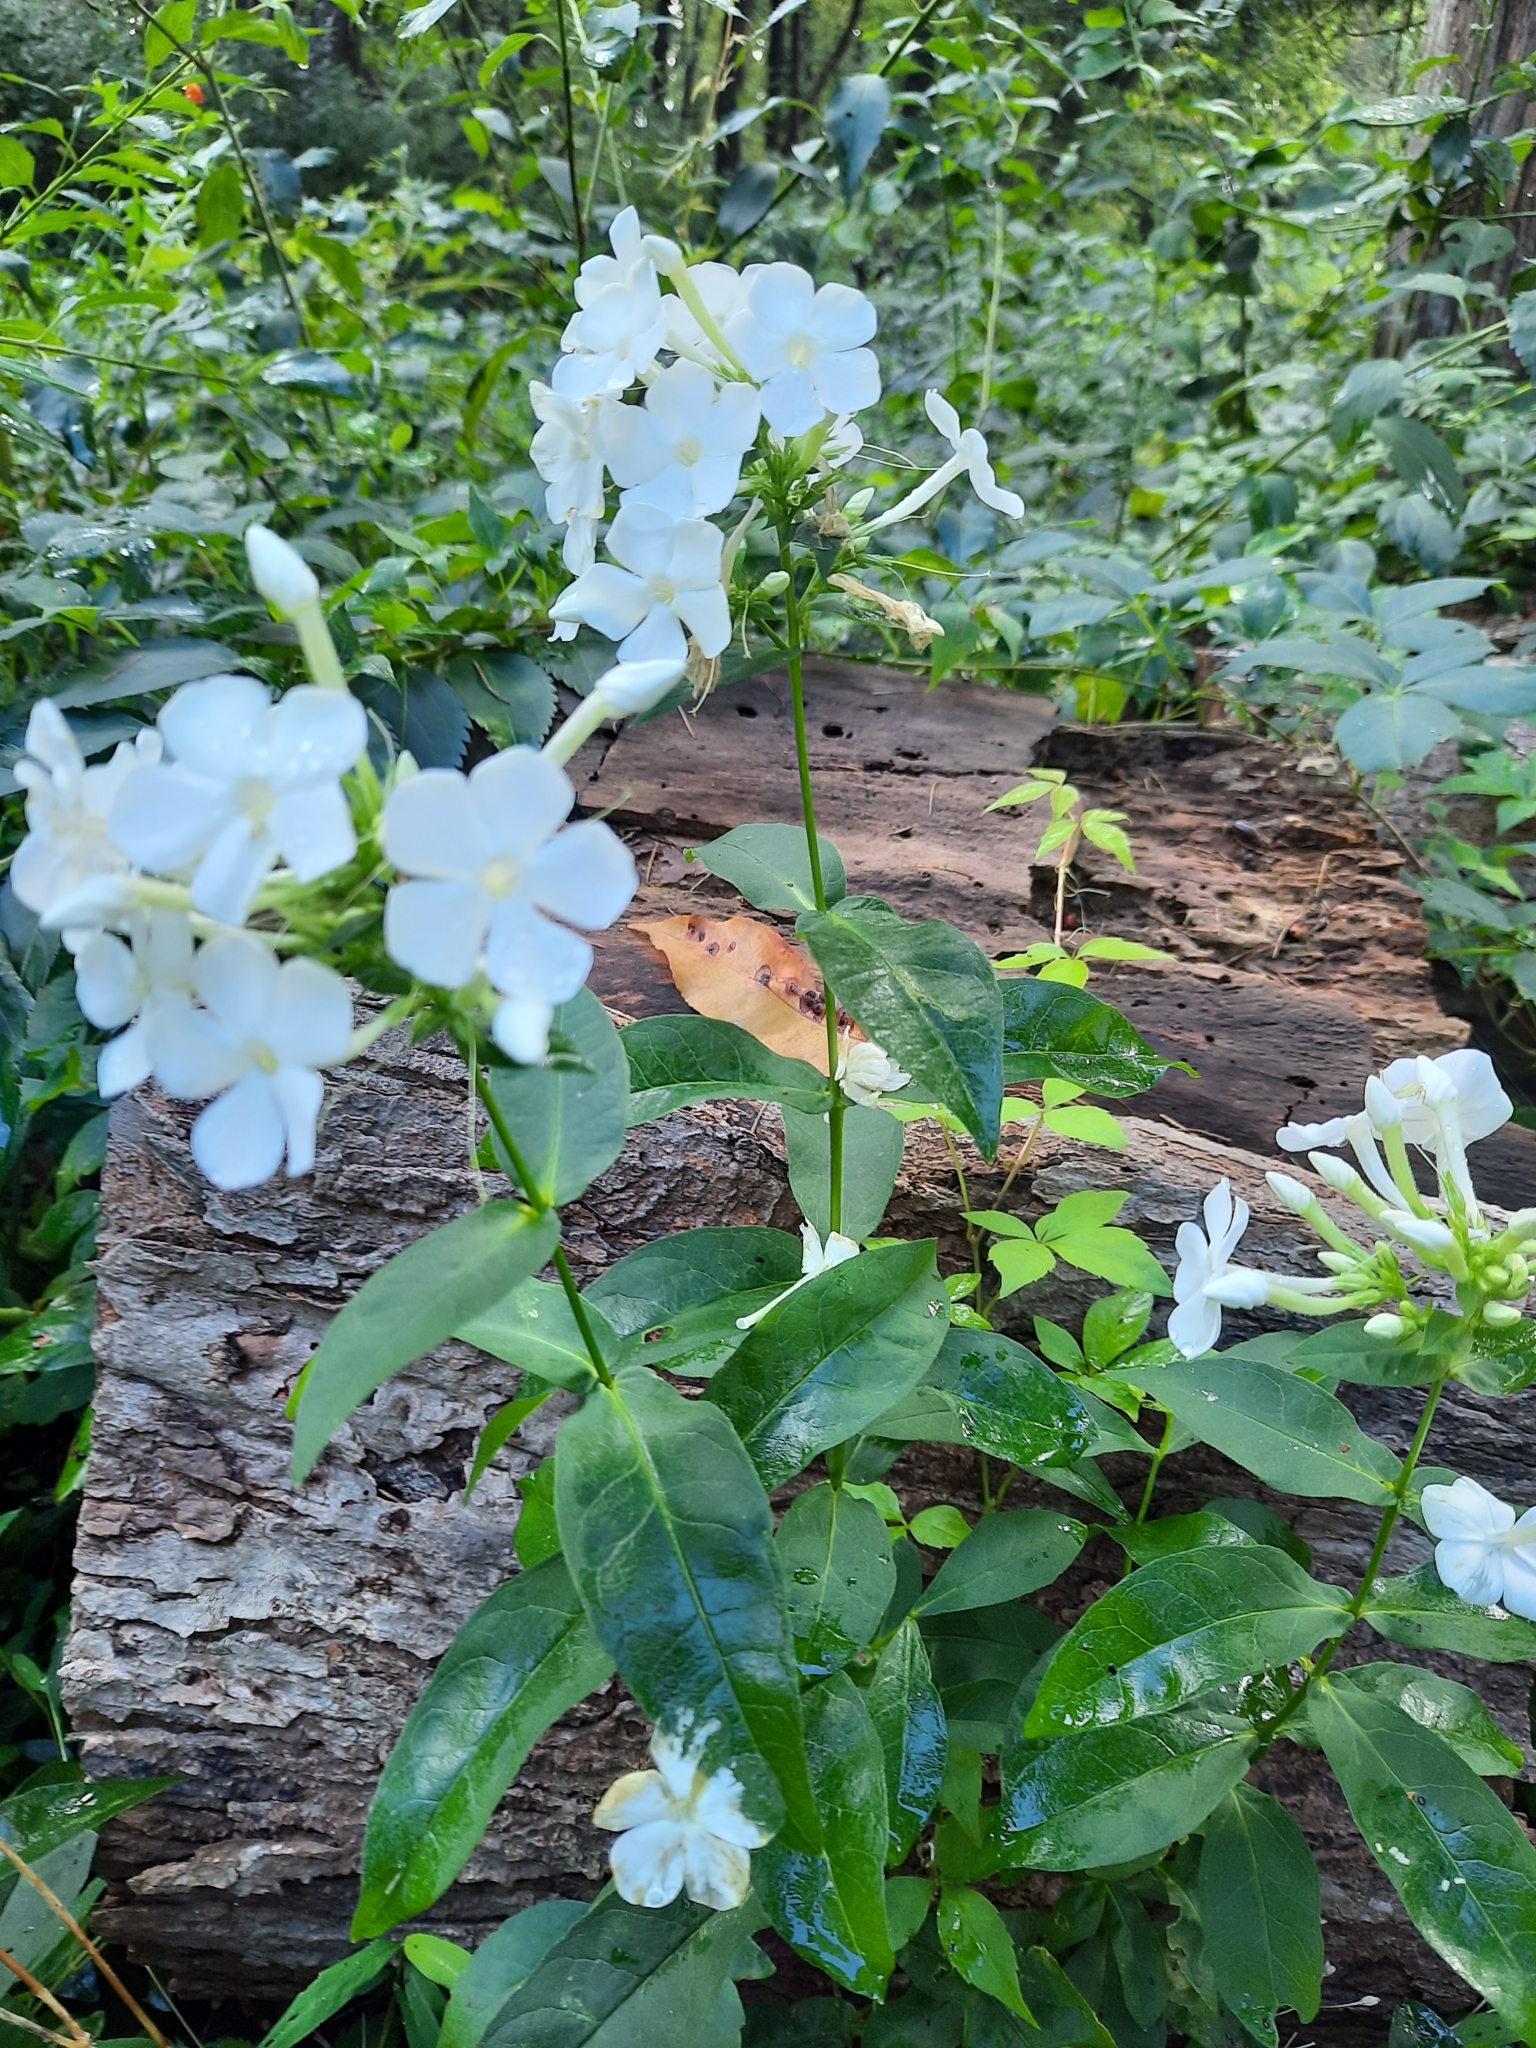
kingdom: Plantae
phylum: Tracheophyta
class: Magnoliopsida
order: Ericales
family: Polemoniaceae
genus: Phlox
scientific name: Phlox paniculata
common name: Fall phlox
